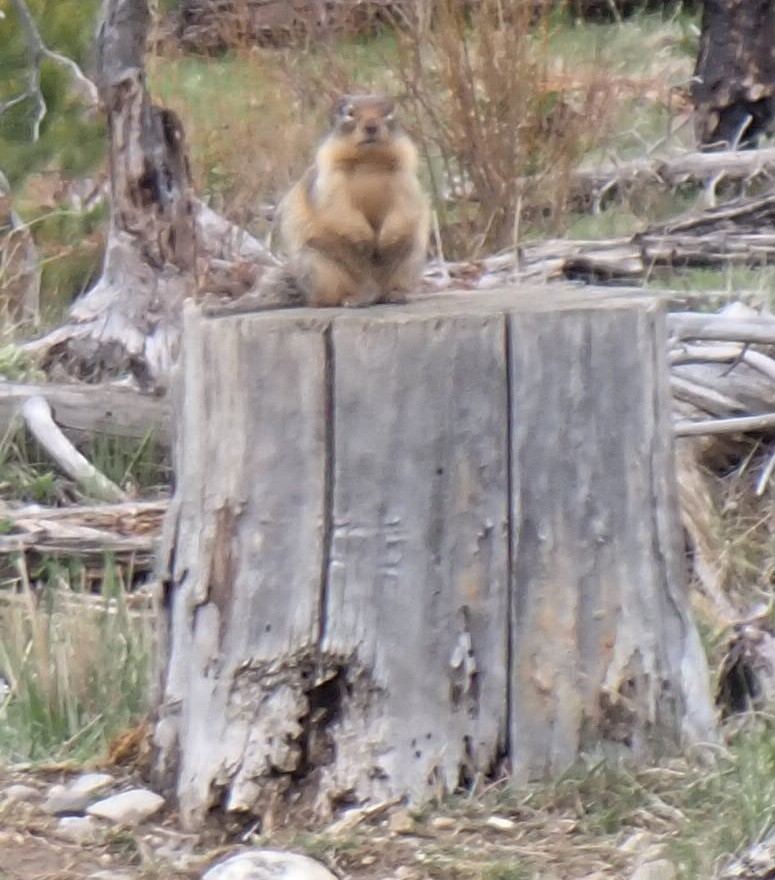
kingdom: Animalia
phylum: Chordata
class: Mammalia
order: Rodentia
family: Sciuridae
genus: Urocitellus
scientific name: Urocitellus columbianus
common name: Columbian ground squirrel
